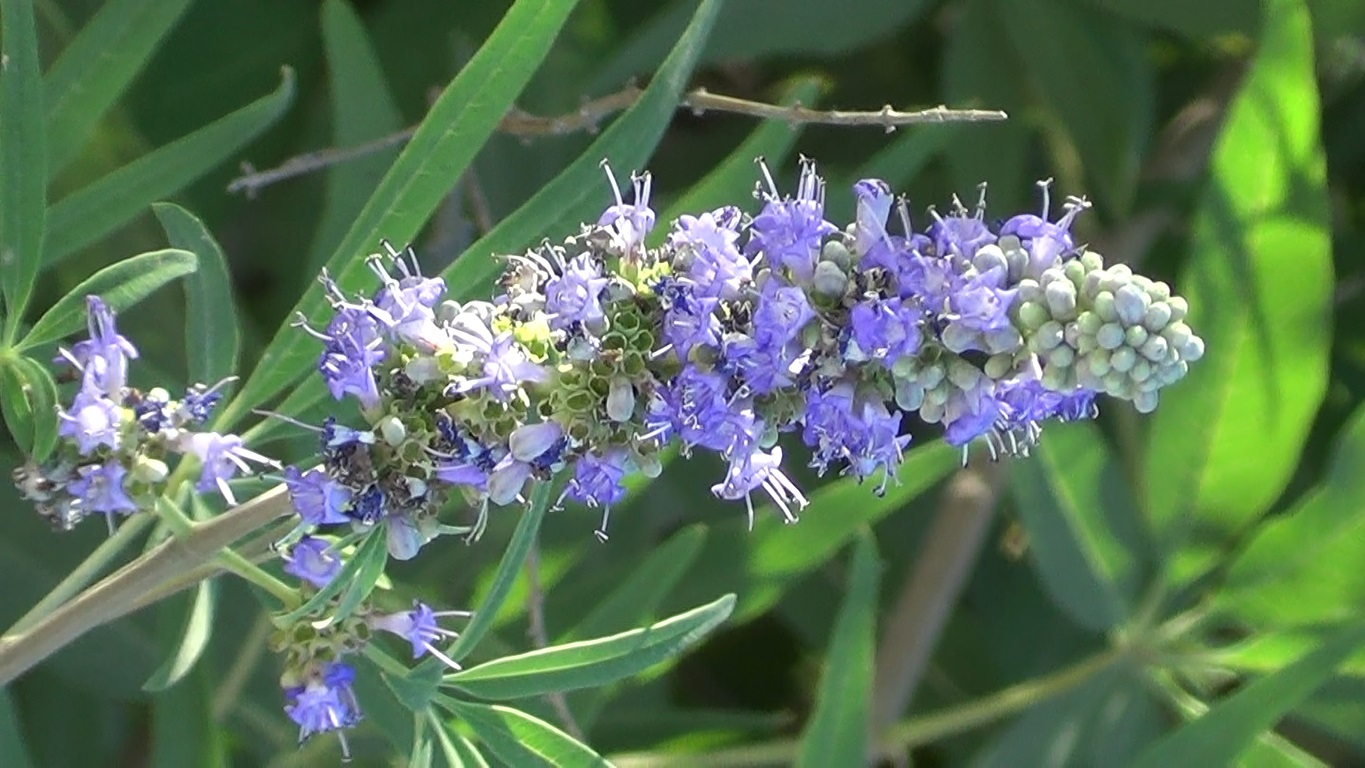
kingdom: Plantae
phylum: Tracheophyta
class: Magnoliopsida
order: Lamiales
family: Lamiaceae
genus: Vitex
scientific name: Vitex agnus-castus
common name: Chasteberry
